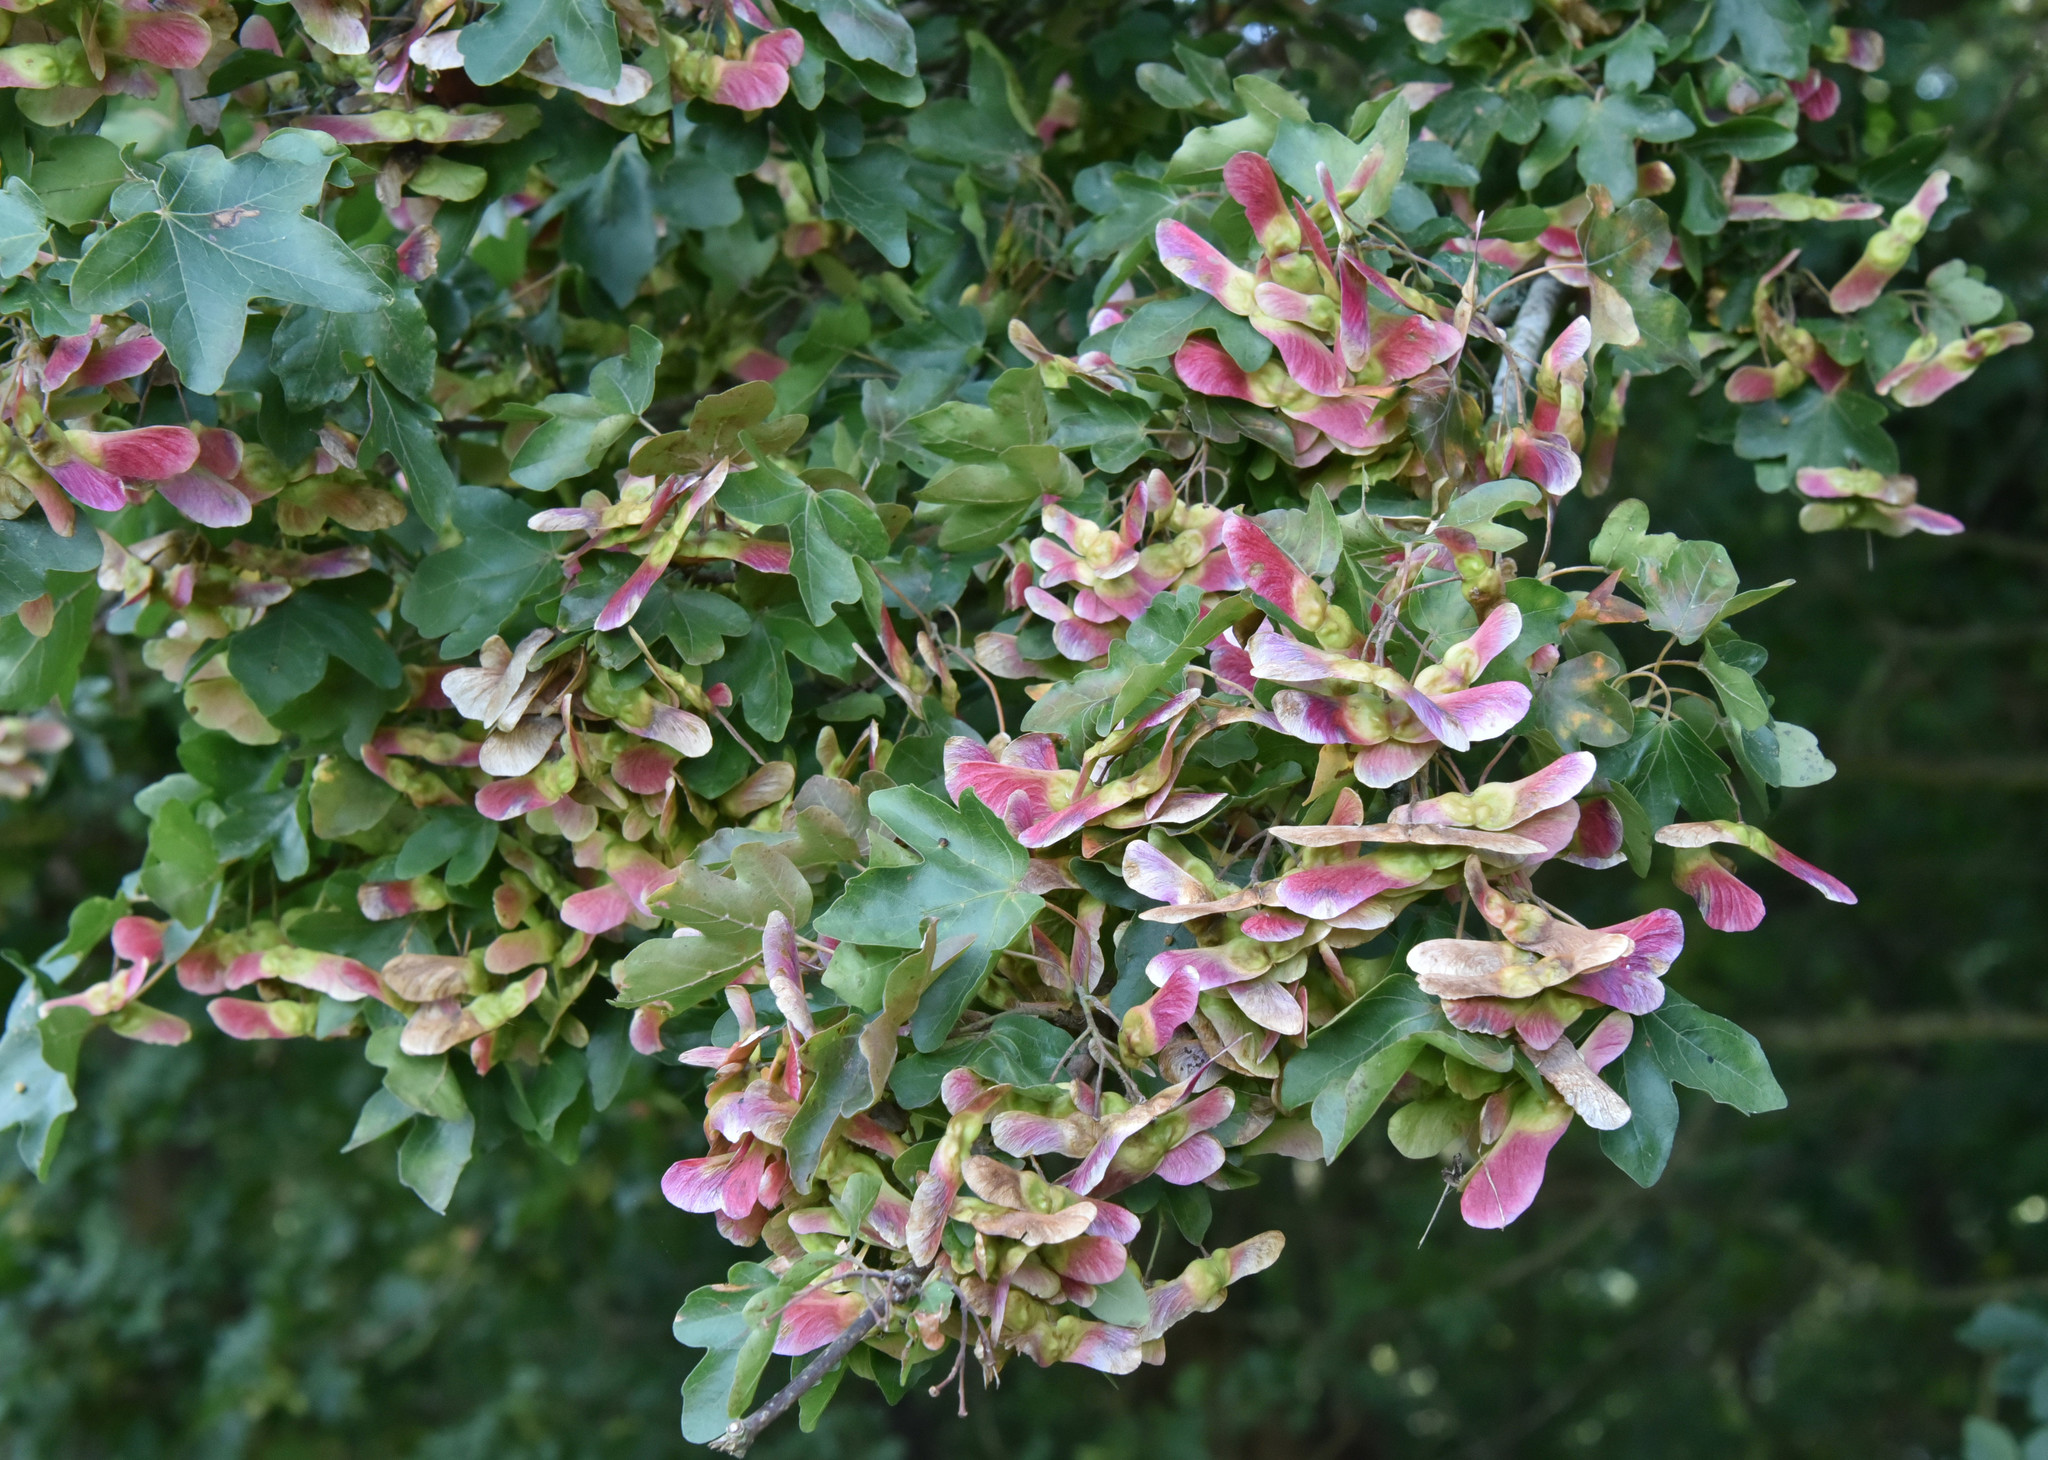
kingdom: Plantae
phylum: Tracheophyta
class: Magnoliopsida
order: Sapindales
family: Sapindaceae
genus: Acer
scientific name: Acer campestre
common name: Field maple
